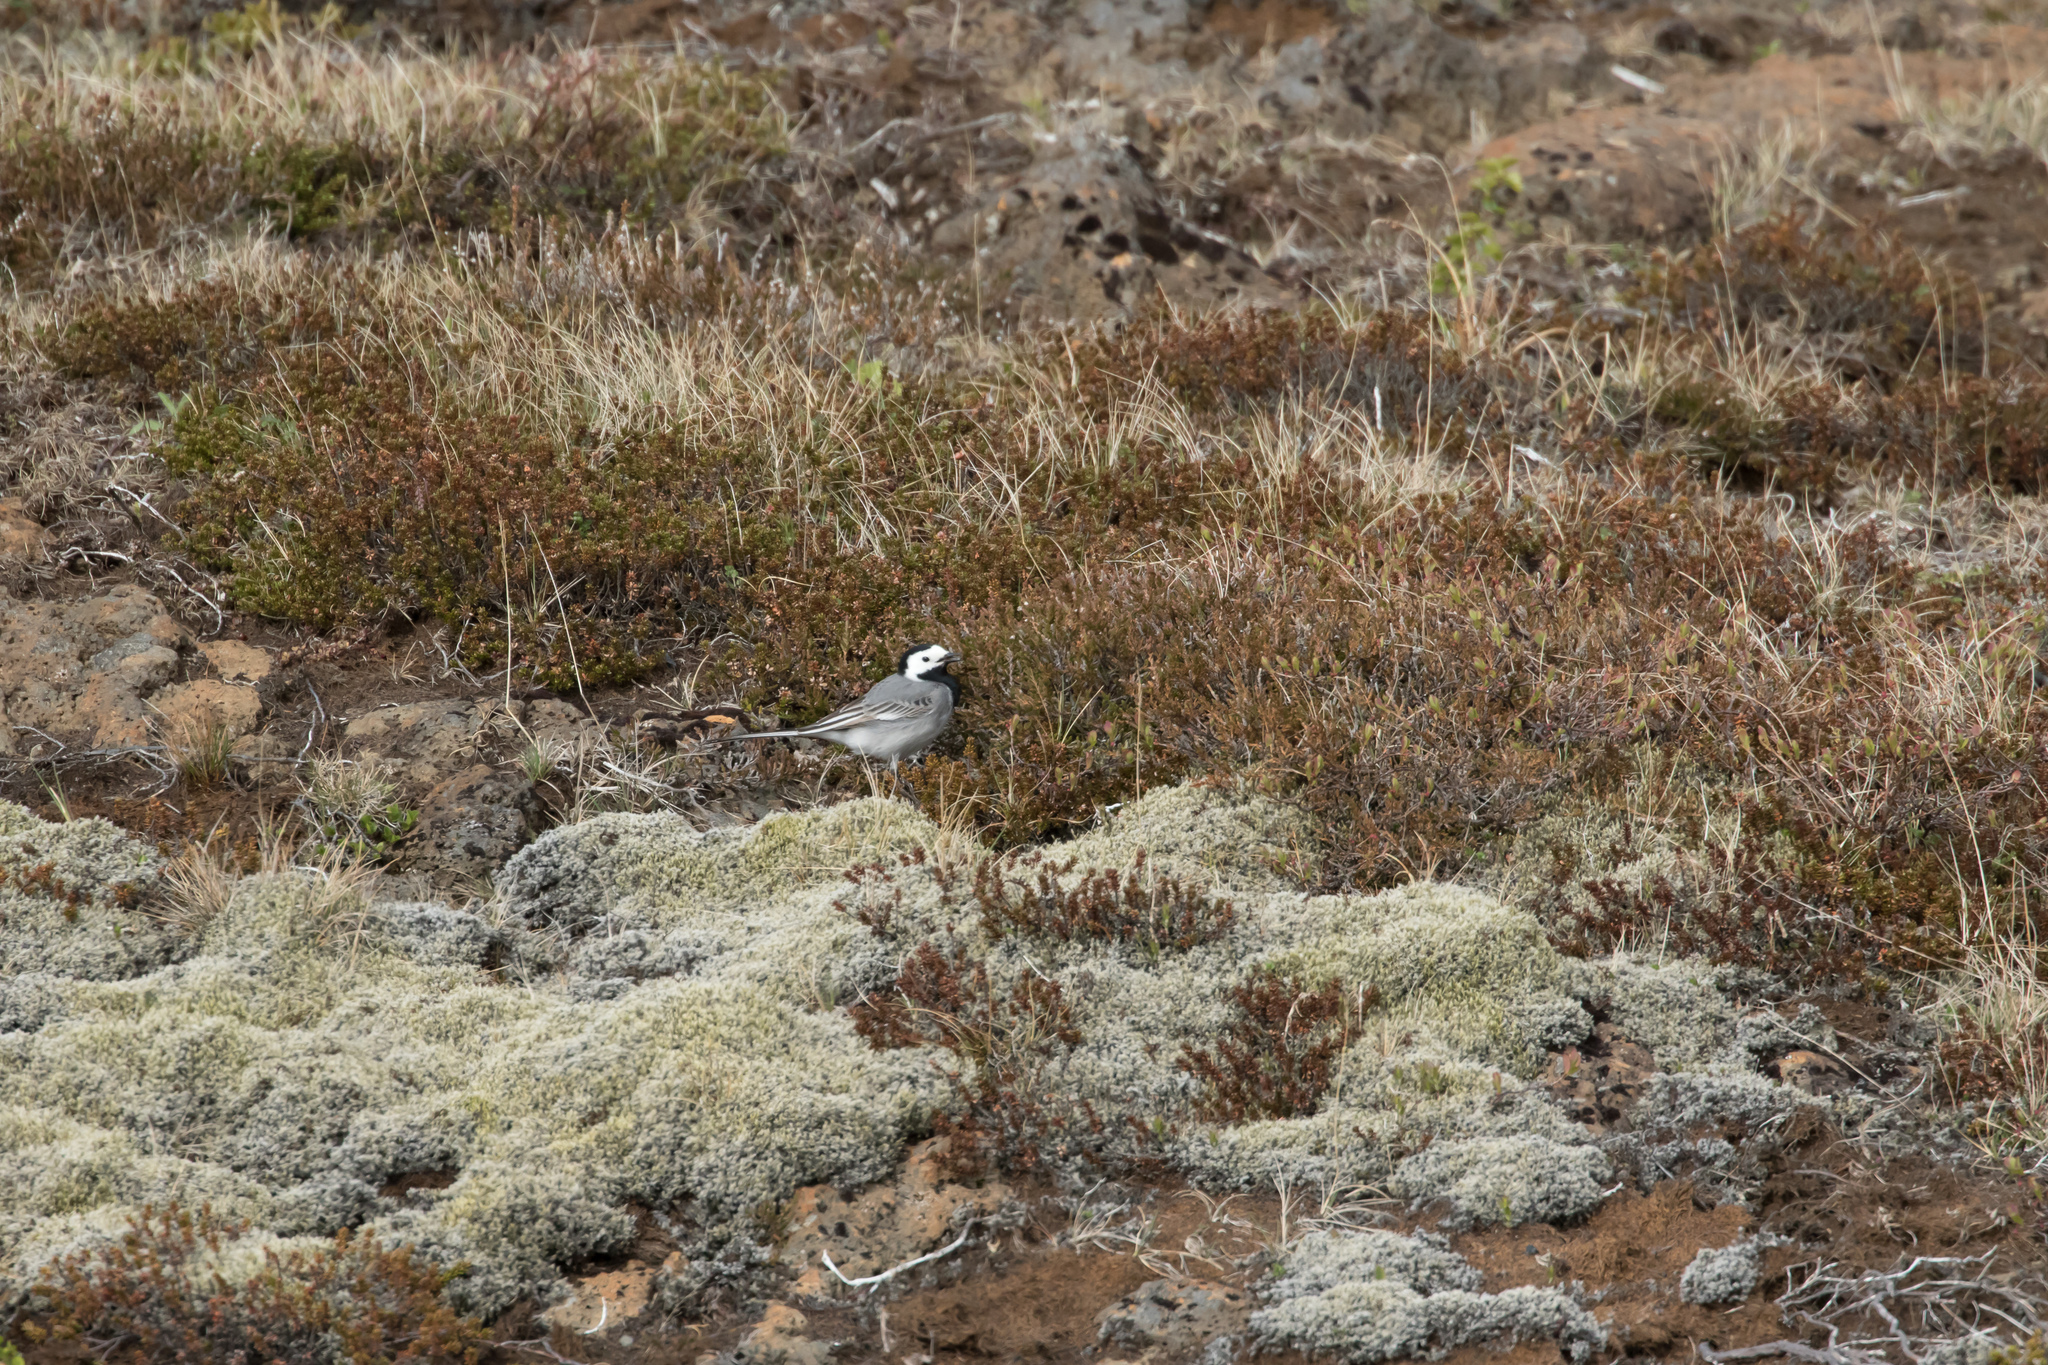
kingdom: Animalia
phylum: Chordata
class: Aves
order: Passeriformes
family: Motacillidae
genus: Motacilla
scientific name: Motacilla alba
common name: White wagtail
